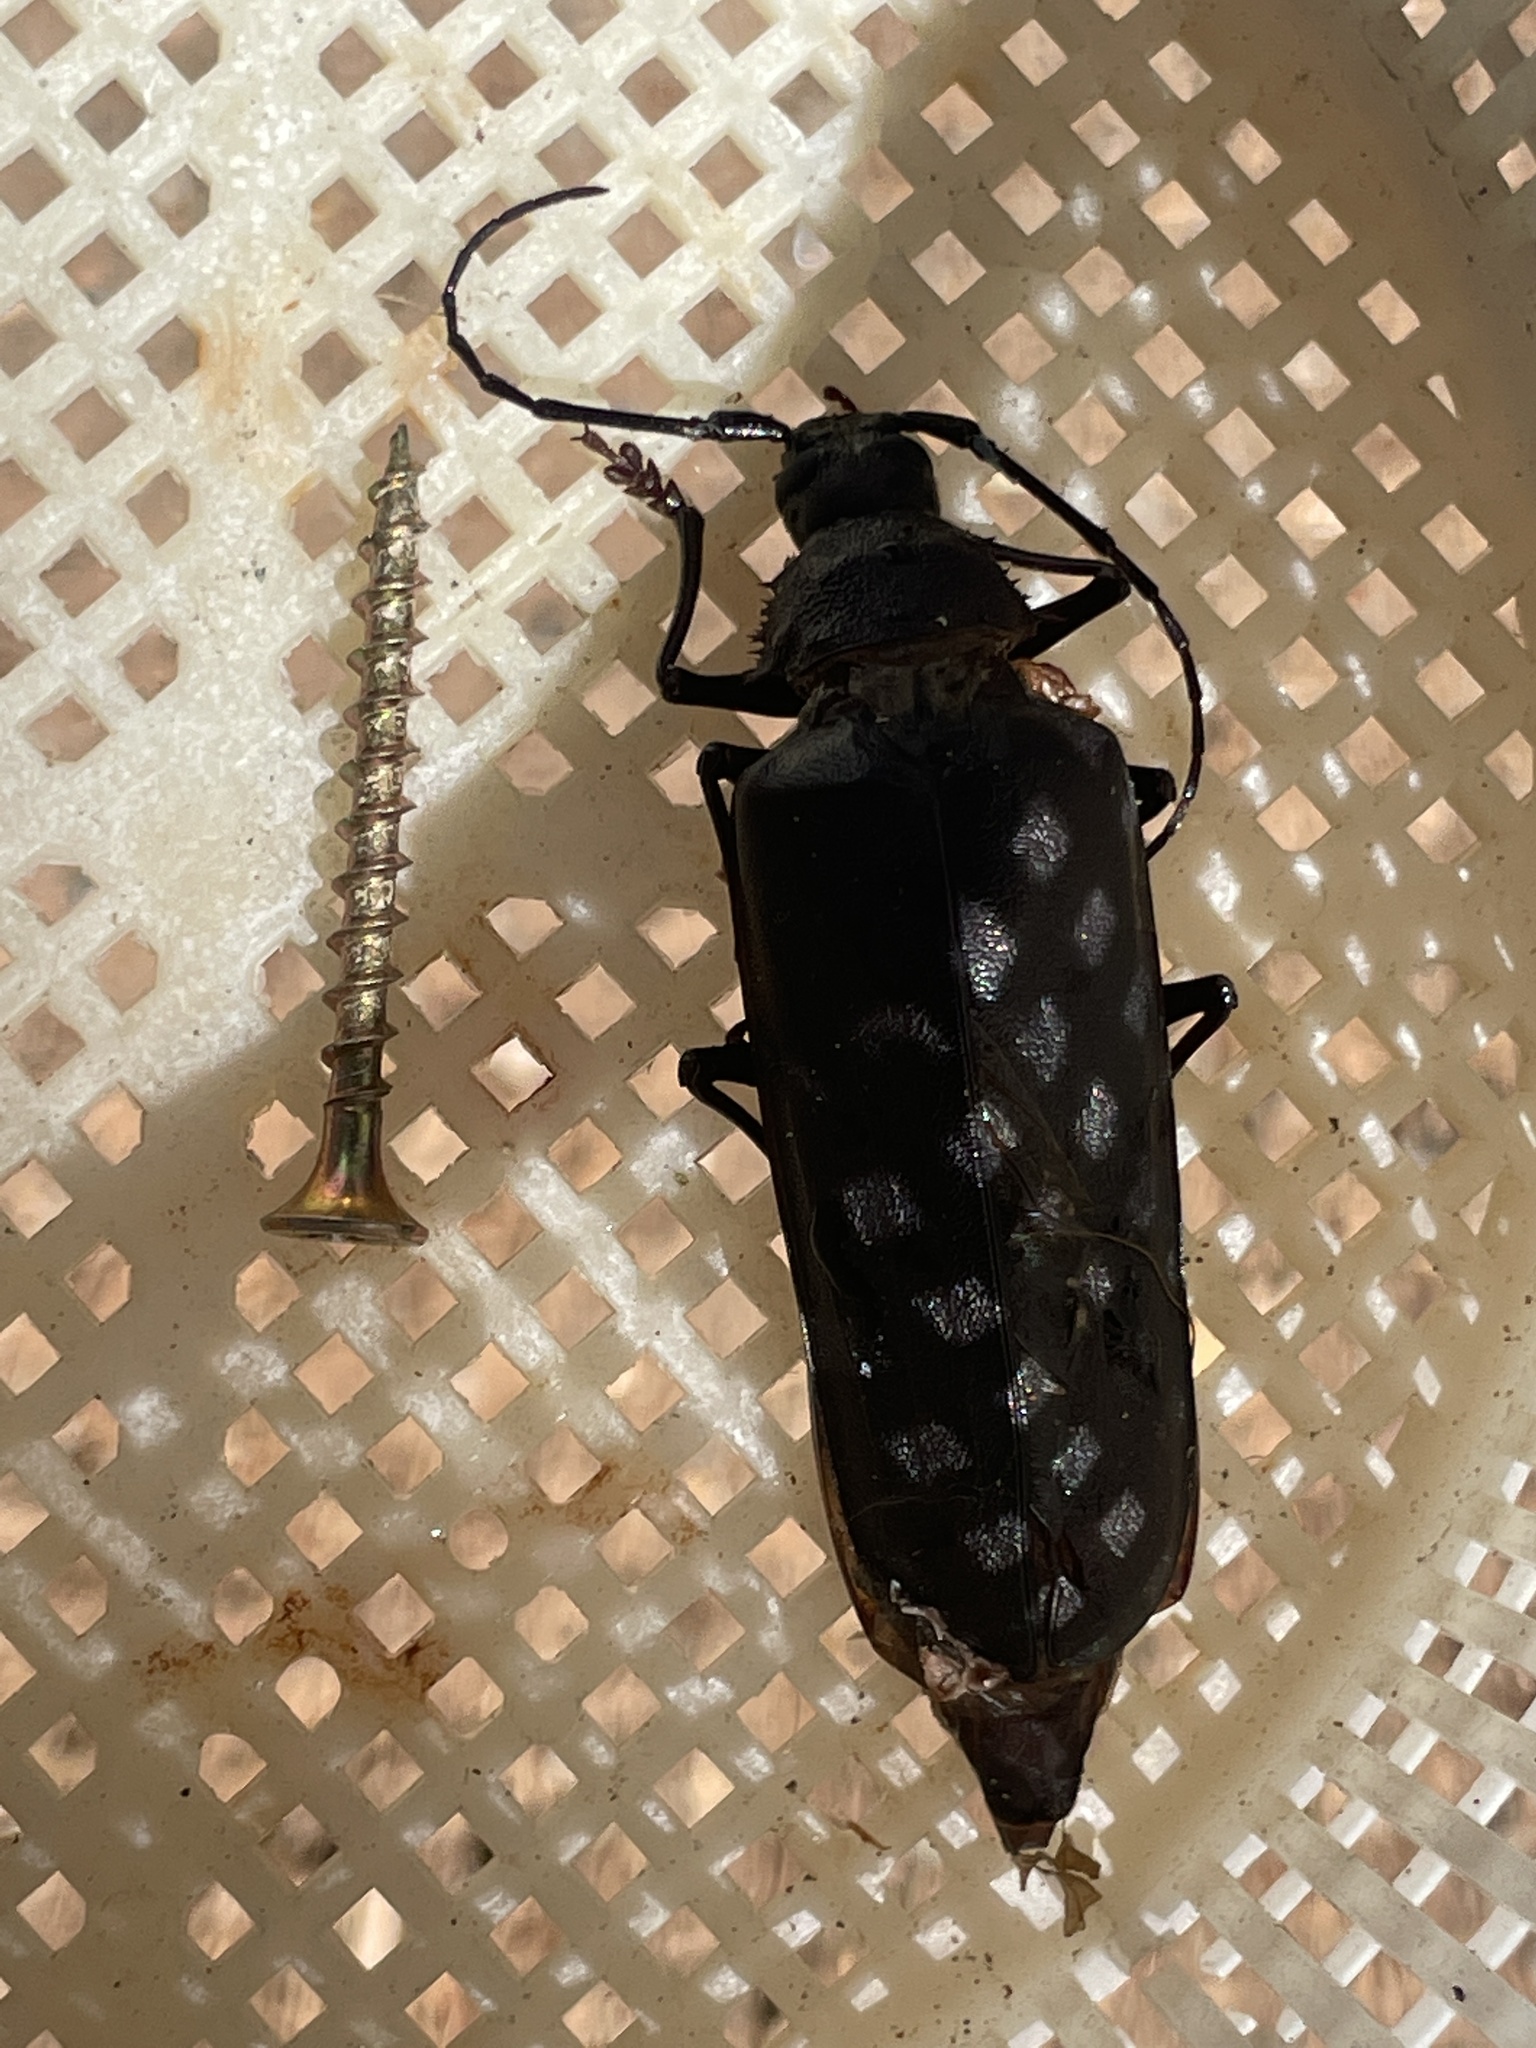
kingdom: Animalia
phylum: Arthropoda
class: Insecta
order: Coleoptera
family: Cerambycidae
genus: Trichocnemis
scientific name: Trichocnemis spiculatus
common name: Long-horned beetle
